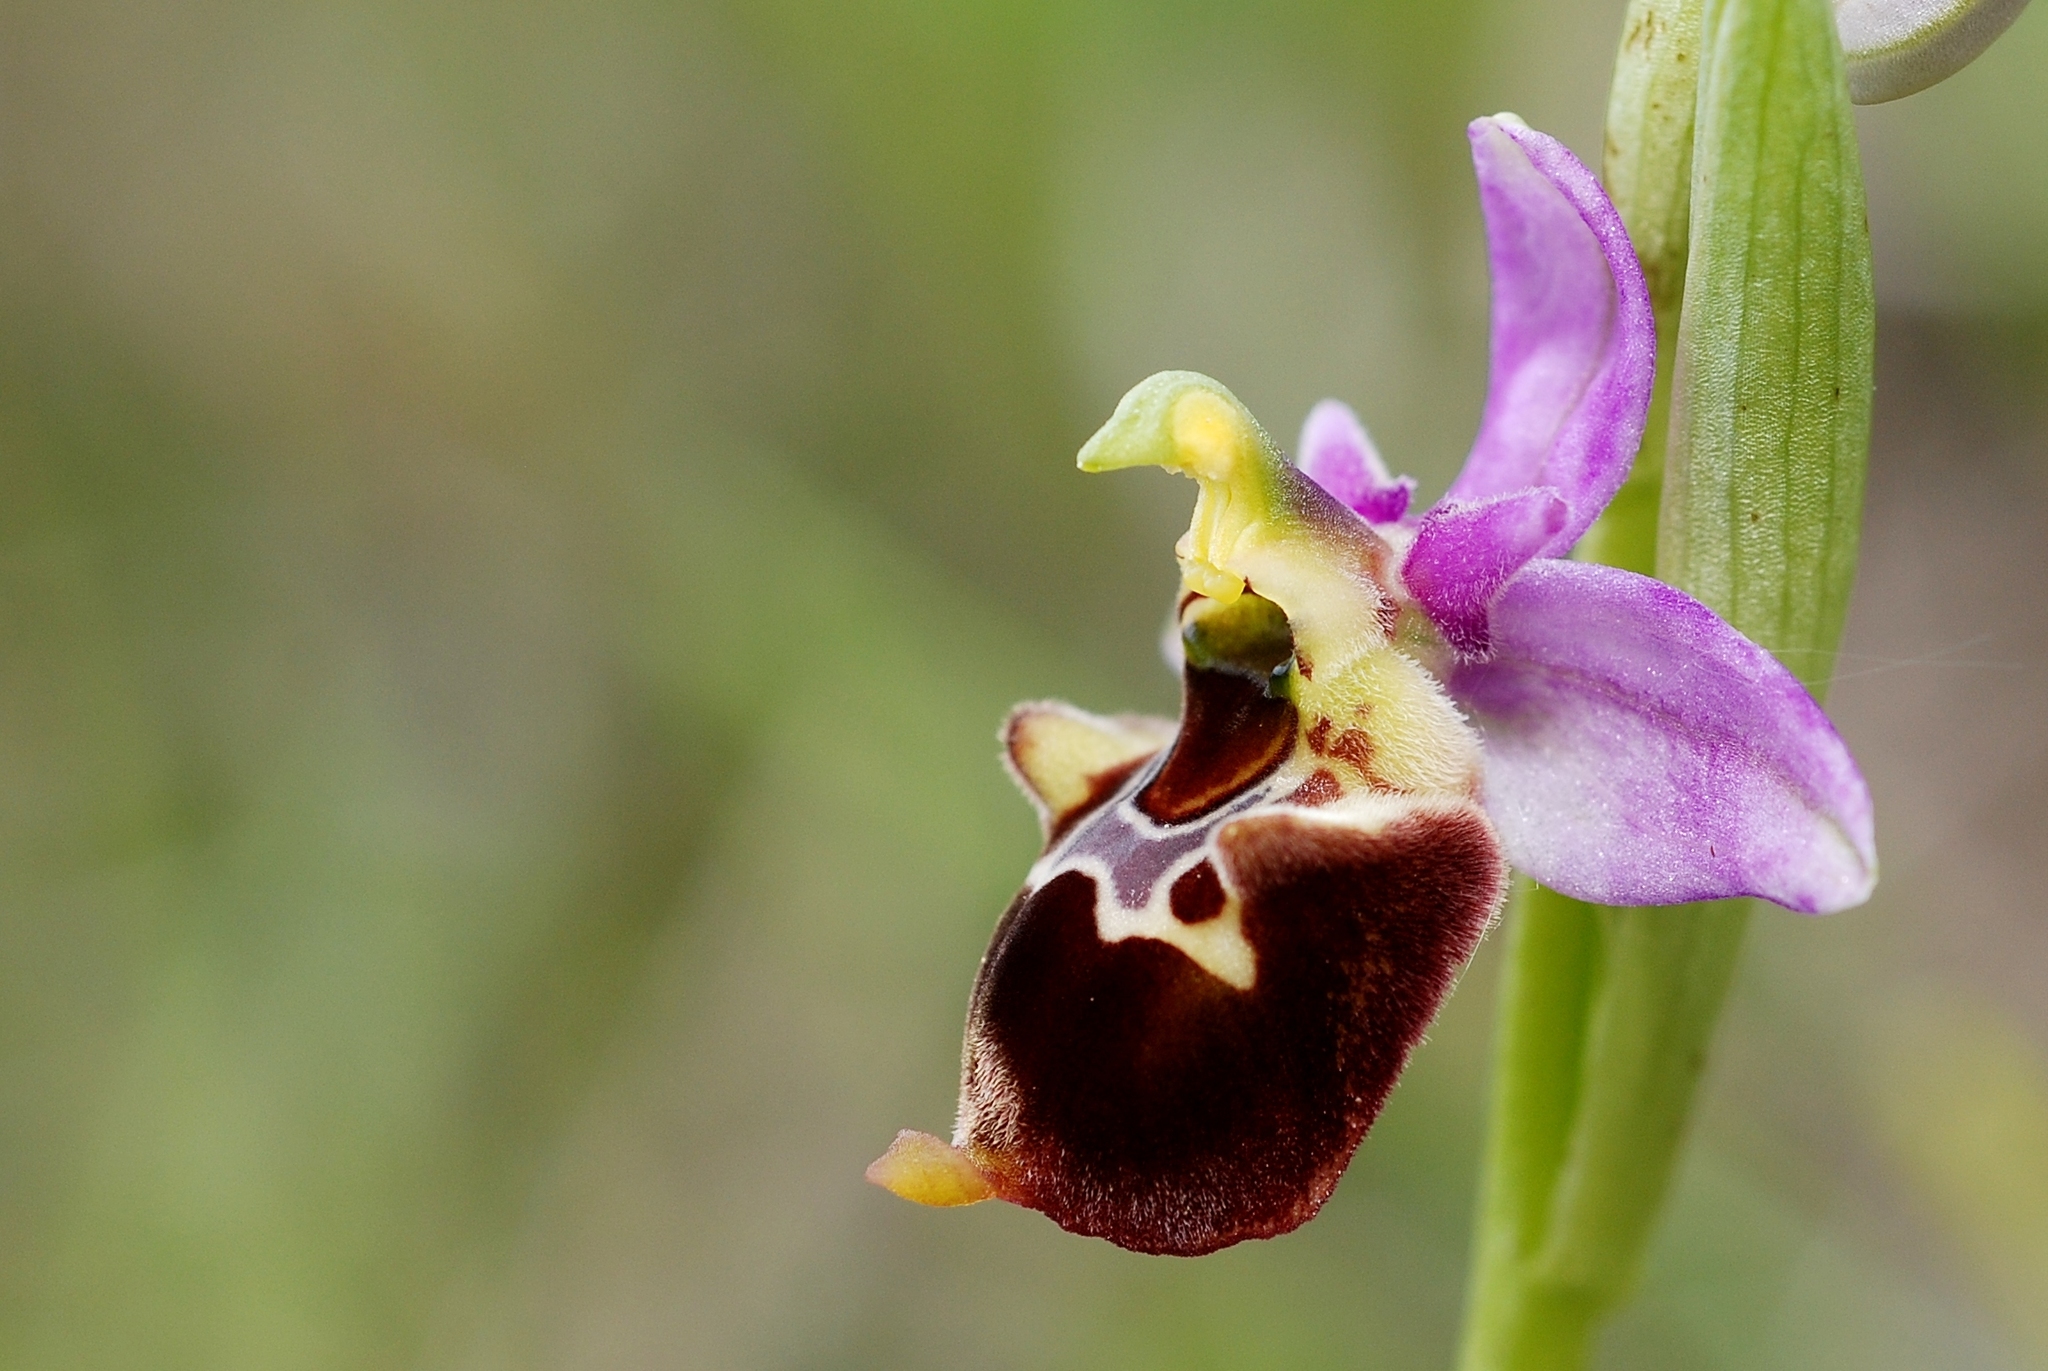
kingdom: Plantae
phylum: Tracheophyta
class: Liliopsida
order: Asparagales
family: Orchidaceae
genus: Ophrys
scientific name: Ophrys holosericea
